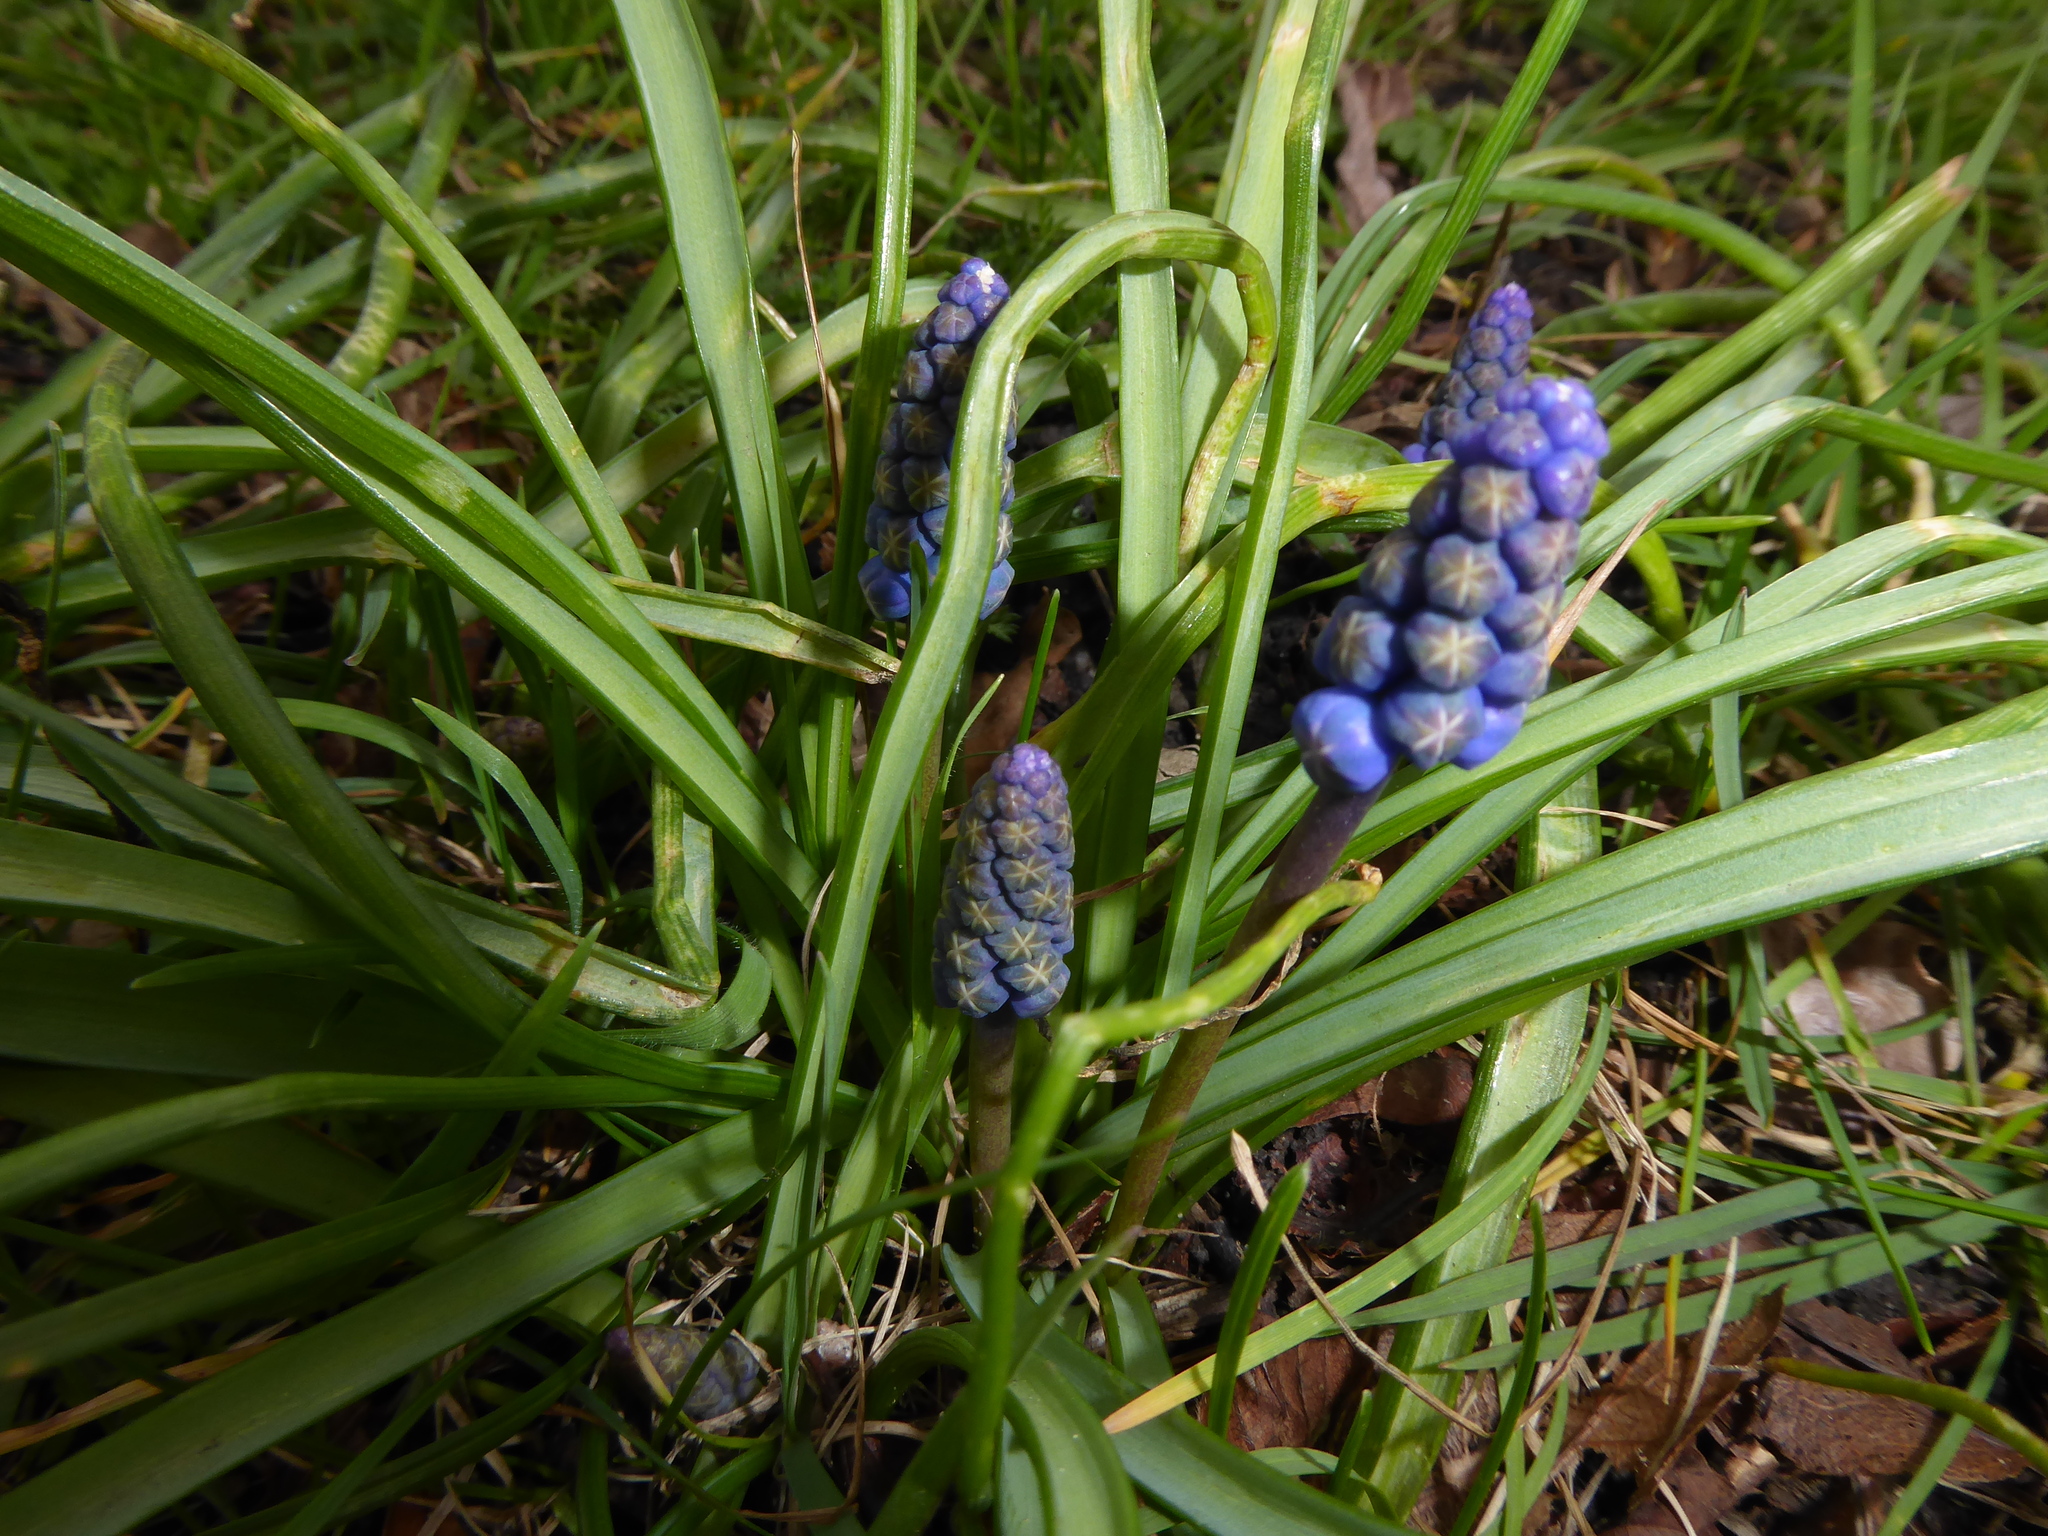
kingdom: Plantae
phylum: Tracheophyta
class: Liliopsida
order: Asparagales
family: Asparagaceae
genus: Muscari
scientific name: Muscari armeniacum
